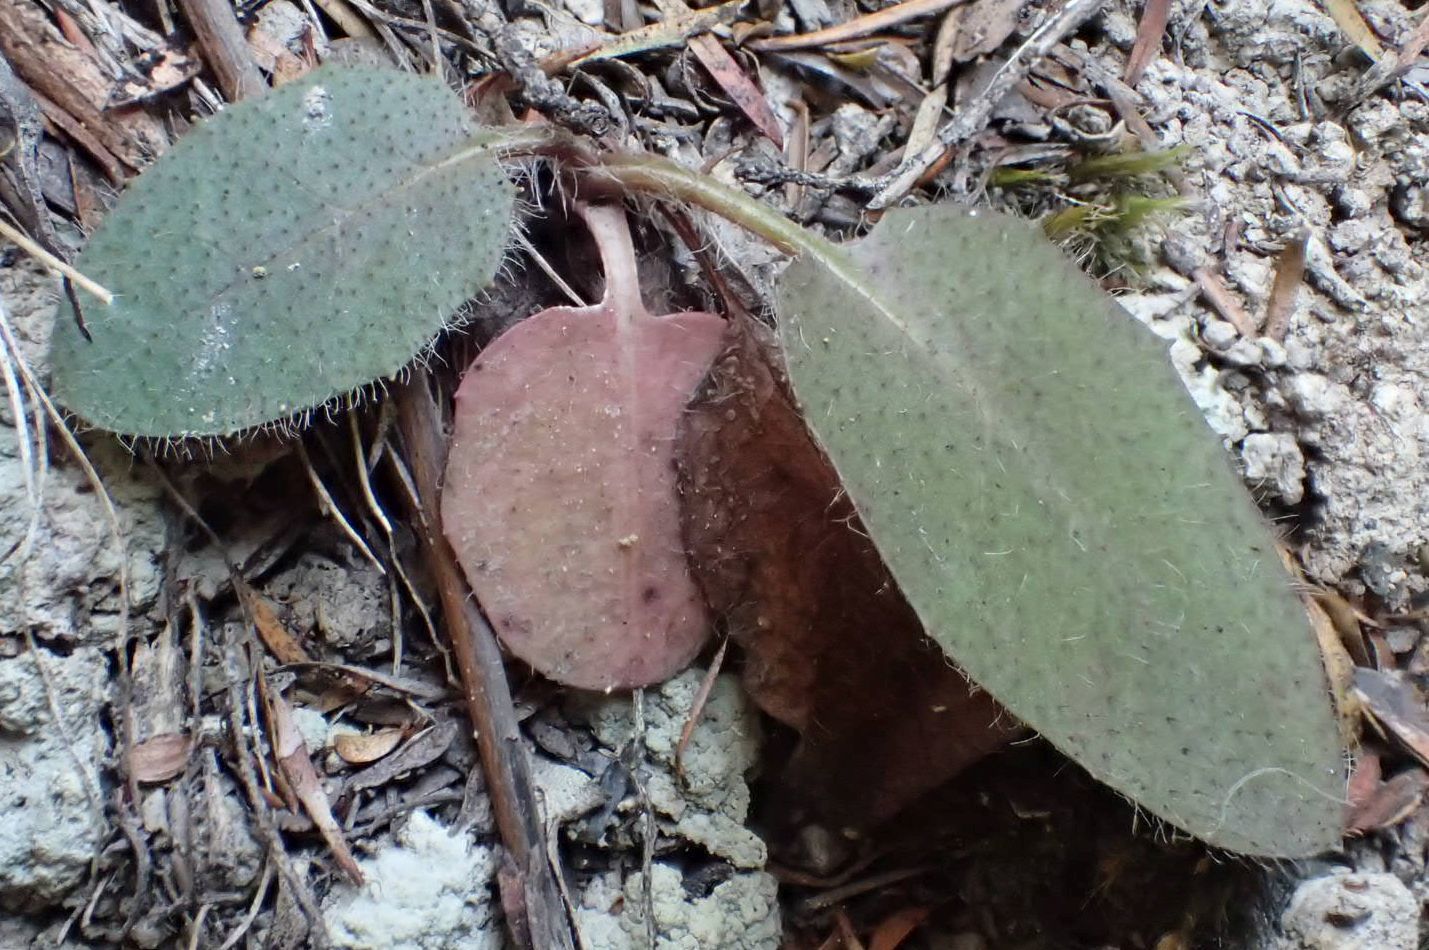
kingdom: Plantae
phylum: Tracheophyta
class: Magnoliopsida
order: Asterales
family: Asteraceae
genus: Hieracium
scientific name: Hieracium lepidulum
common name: Irregular-toothed hawkweed
